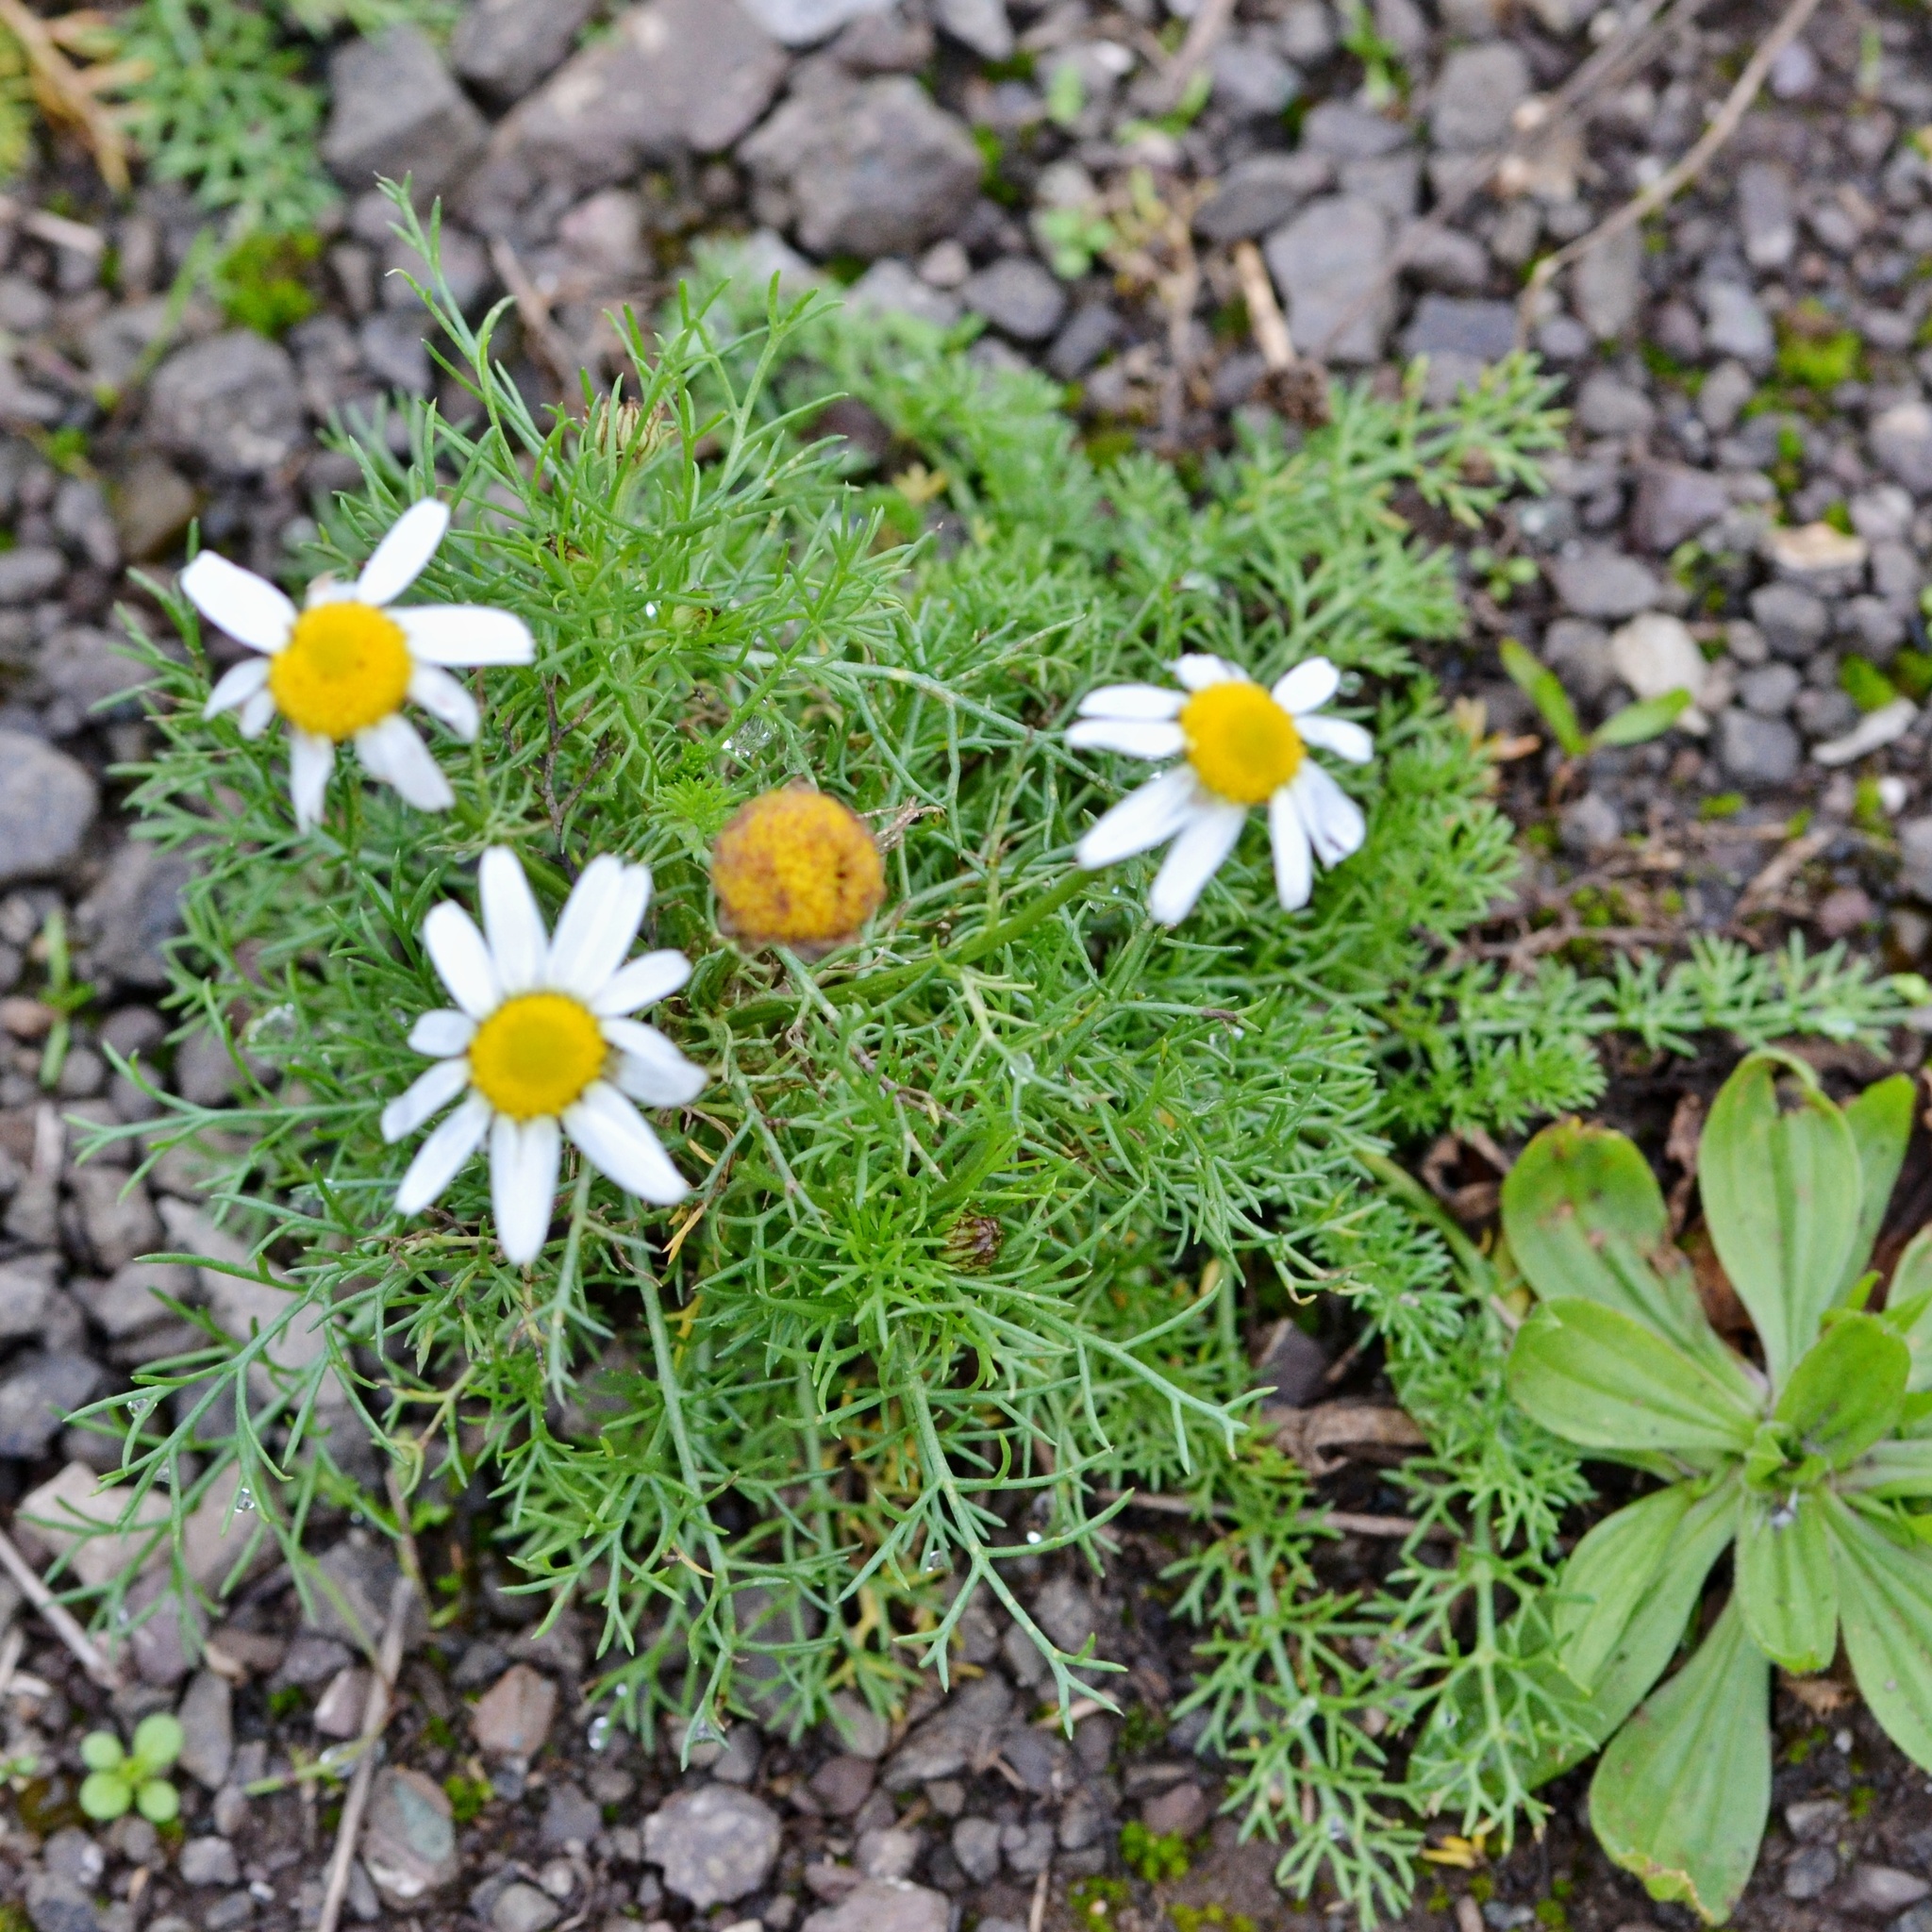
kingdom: Plantae
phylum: Tracheophyta
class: Magnoliopsida
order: Asterales
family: Asteraceae
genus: Tripleurospermum
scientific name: Tripleurospermum inodorum
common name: Scentless mayweed
